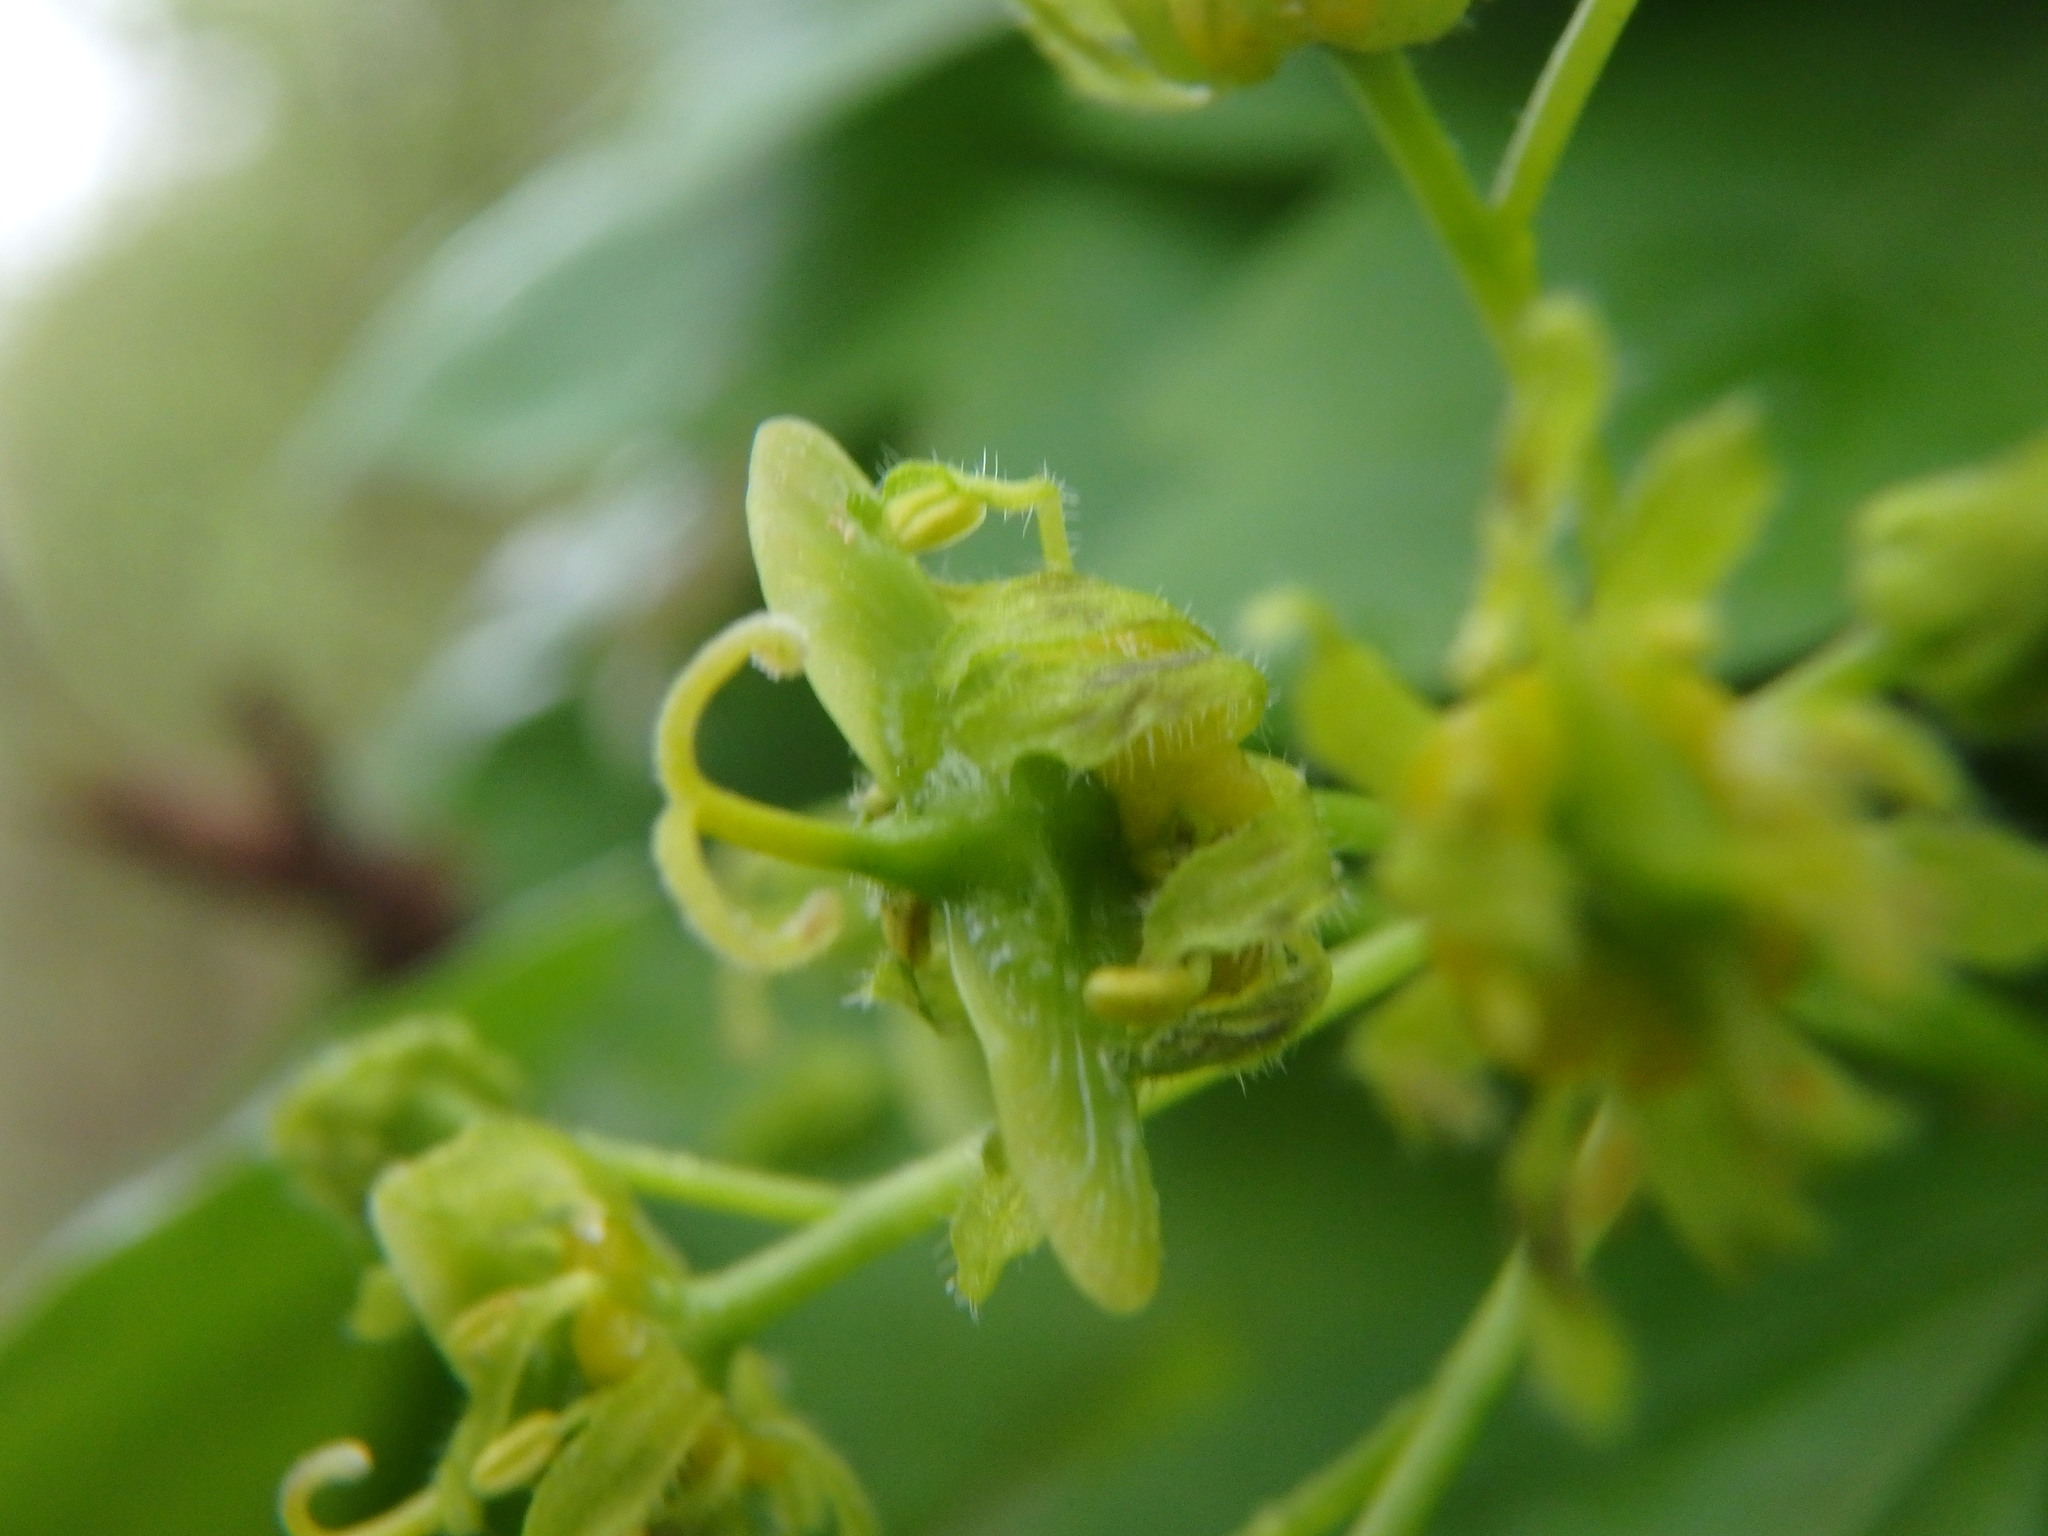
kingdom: Plantae
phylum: Tracheophyta
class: Magnoliopsida
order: Sapindales
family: Sapindaceae
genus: Acer
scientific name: Acer campestre
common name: Field maple
